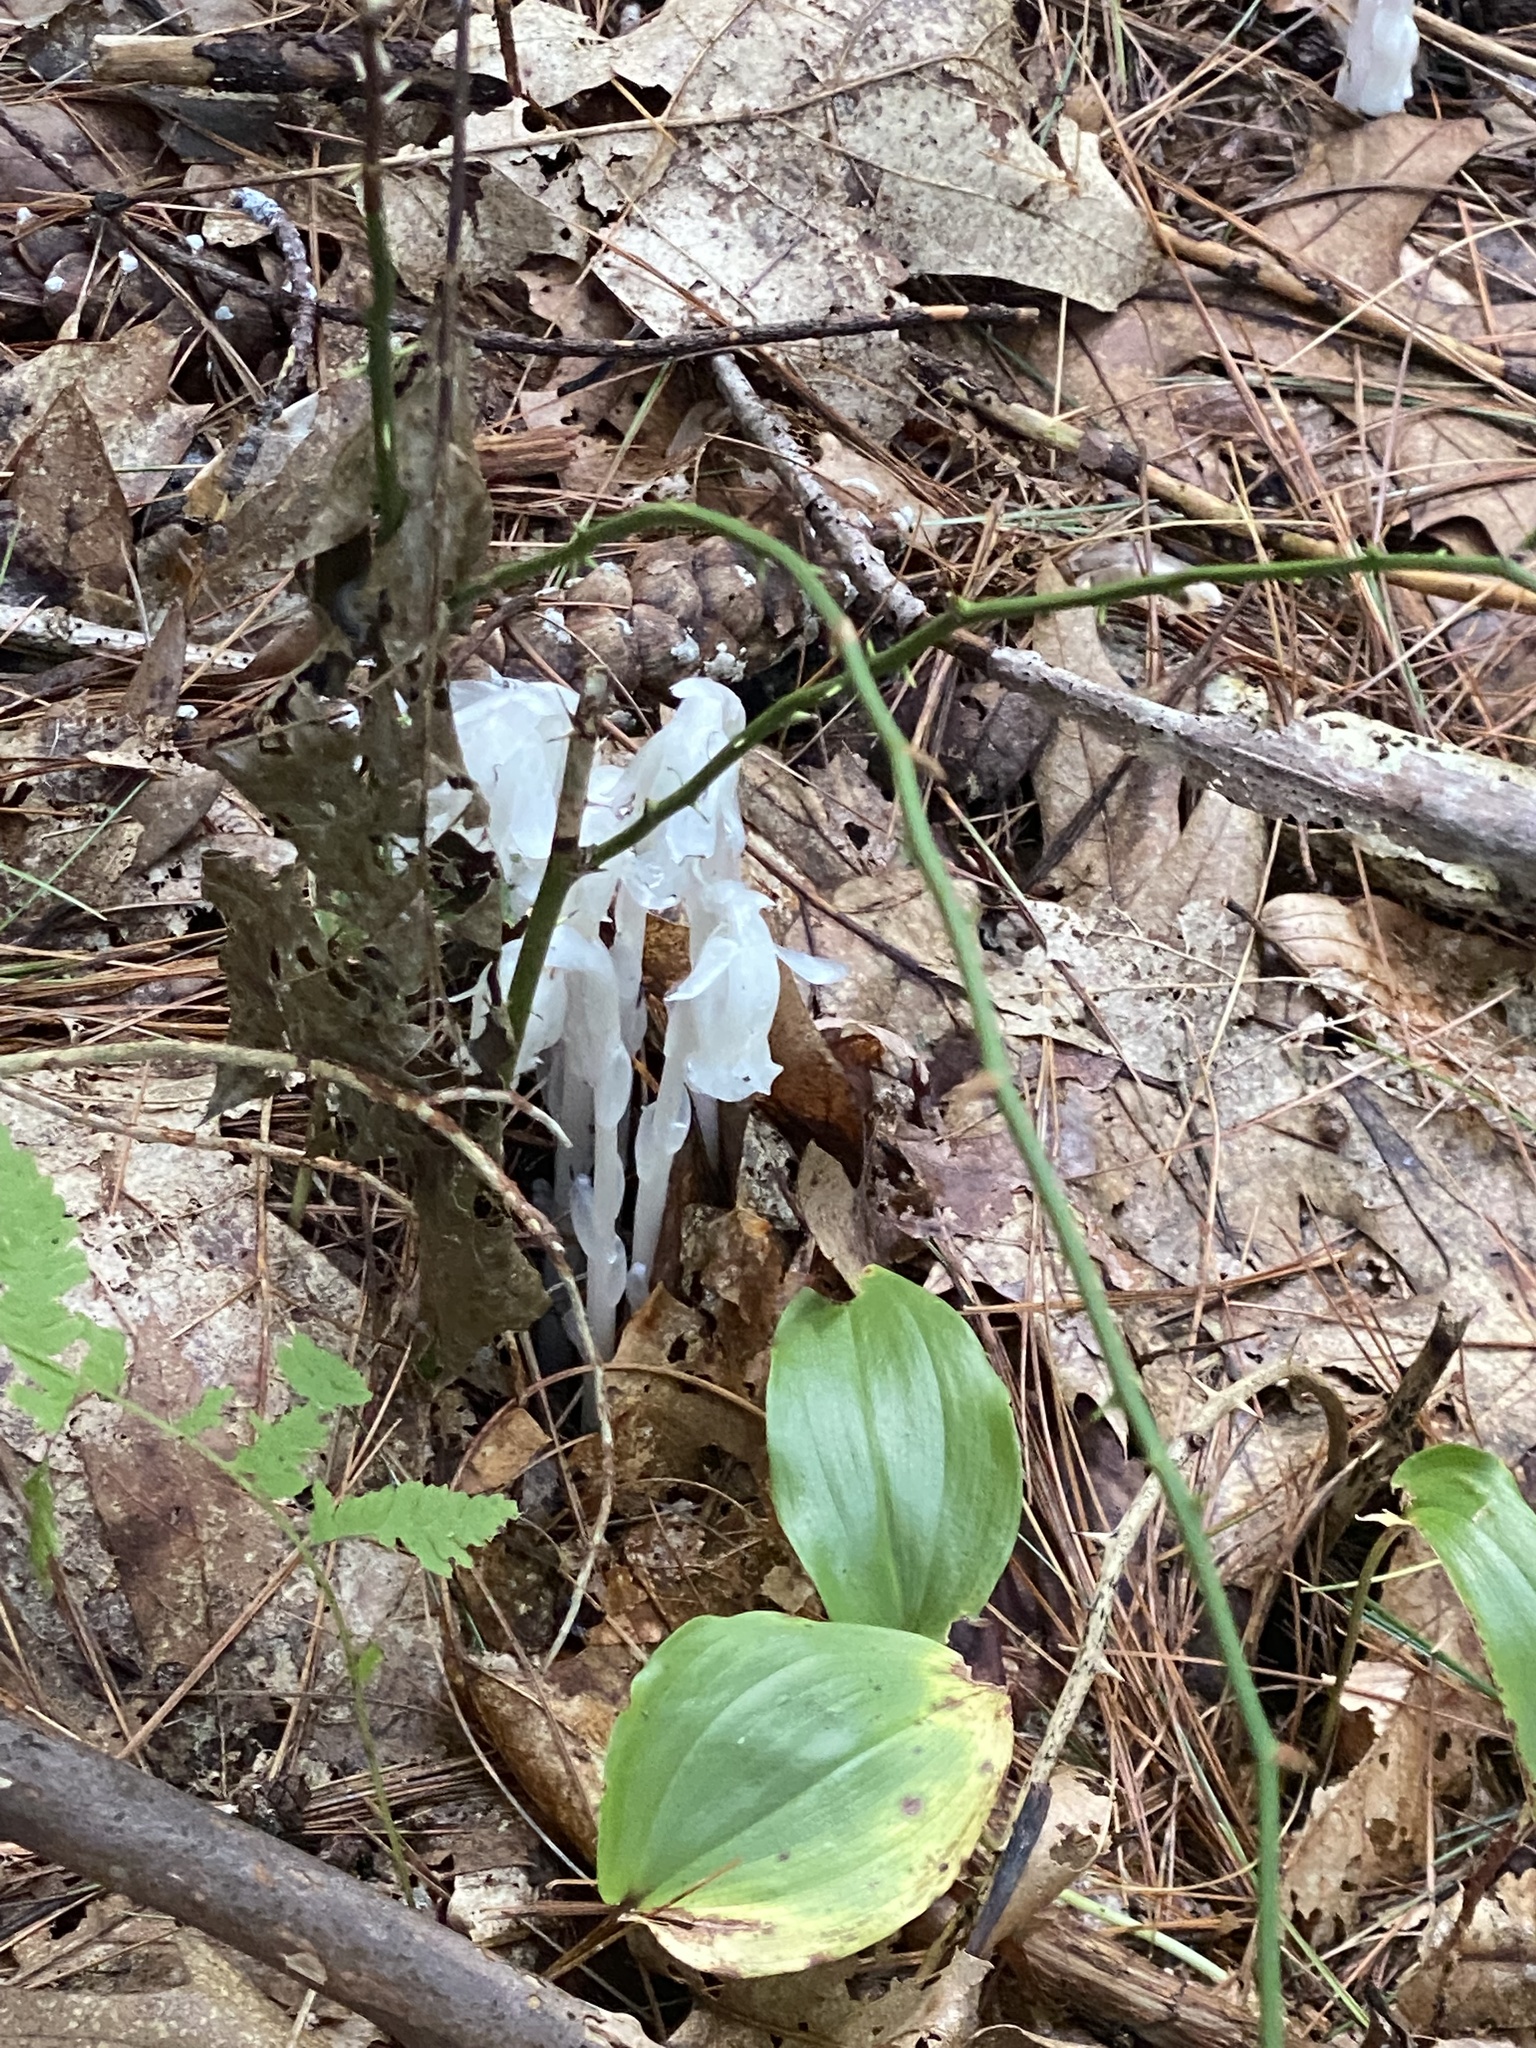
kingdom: Plantae
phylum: Tracheophyta
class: Magnoliopsida
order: Ericales
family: Ericaceae
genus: Monotropa
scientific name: Monotropa uniflora
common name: Convulsion root
